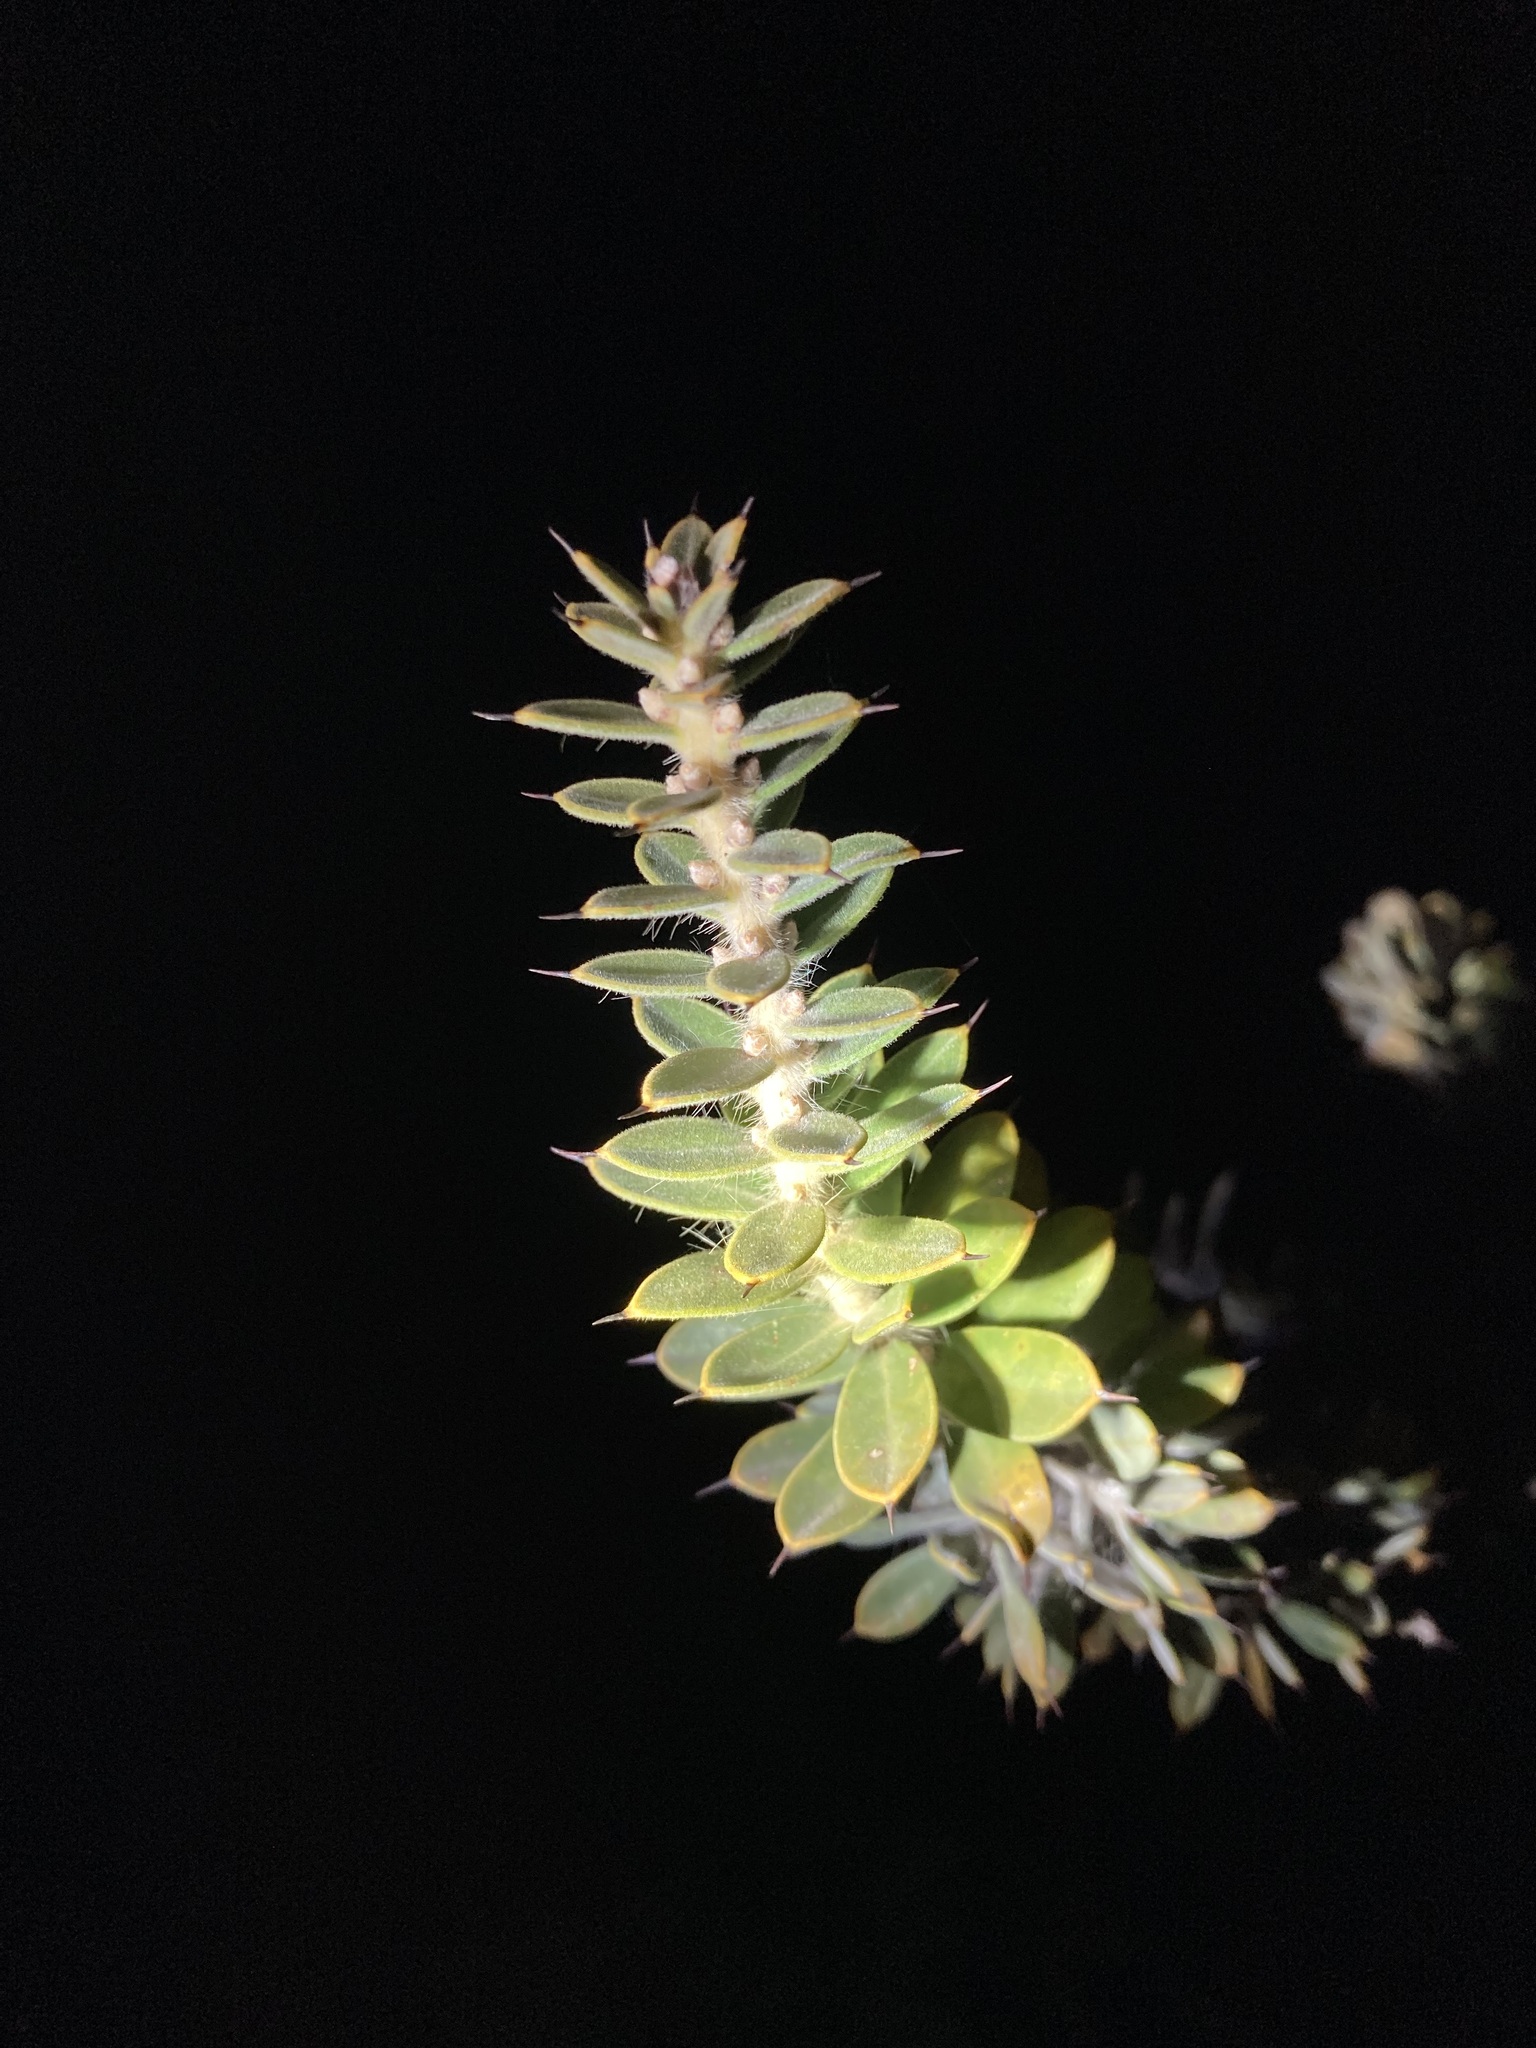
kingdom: Plantae
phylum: Tracheophyta
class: Magnoliopsida
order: Proteales
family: Proteaceae
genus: Hakea
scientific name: Hakea ruscifolia
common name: Candle hakea
